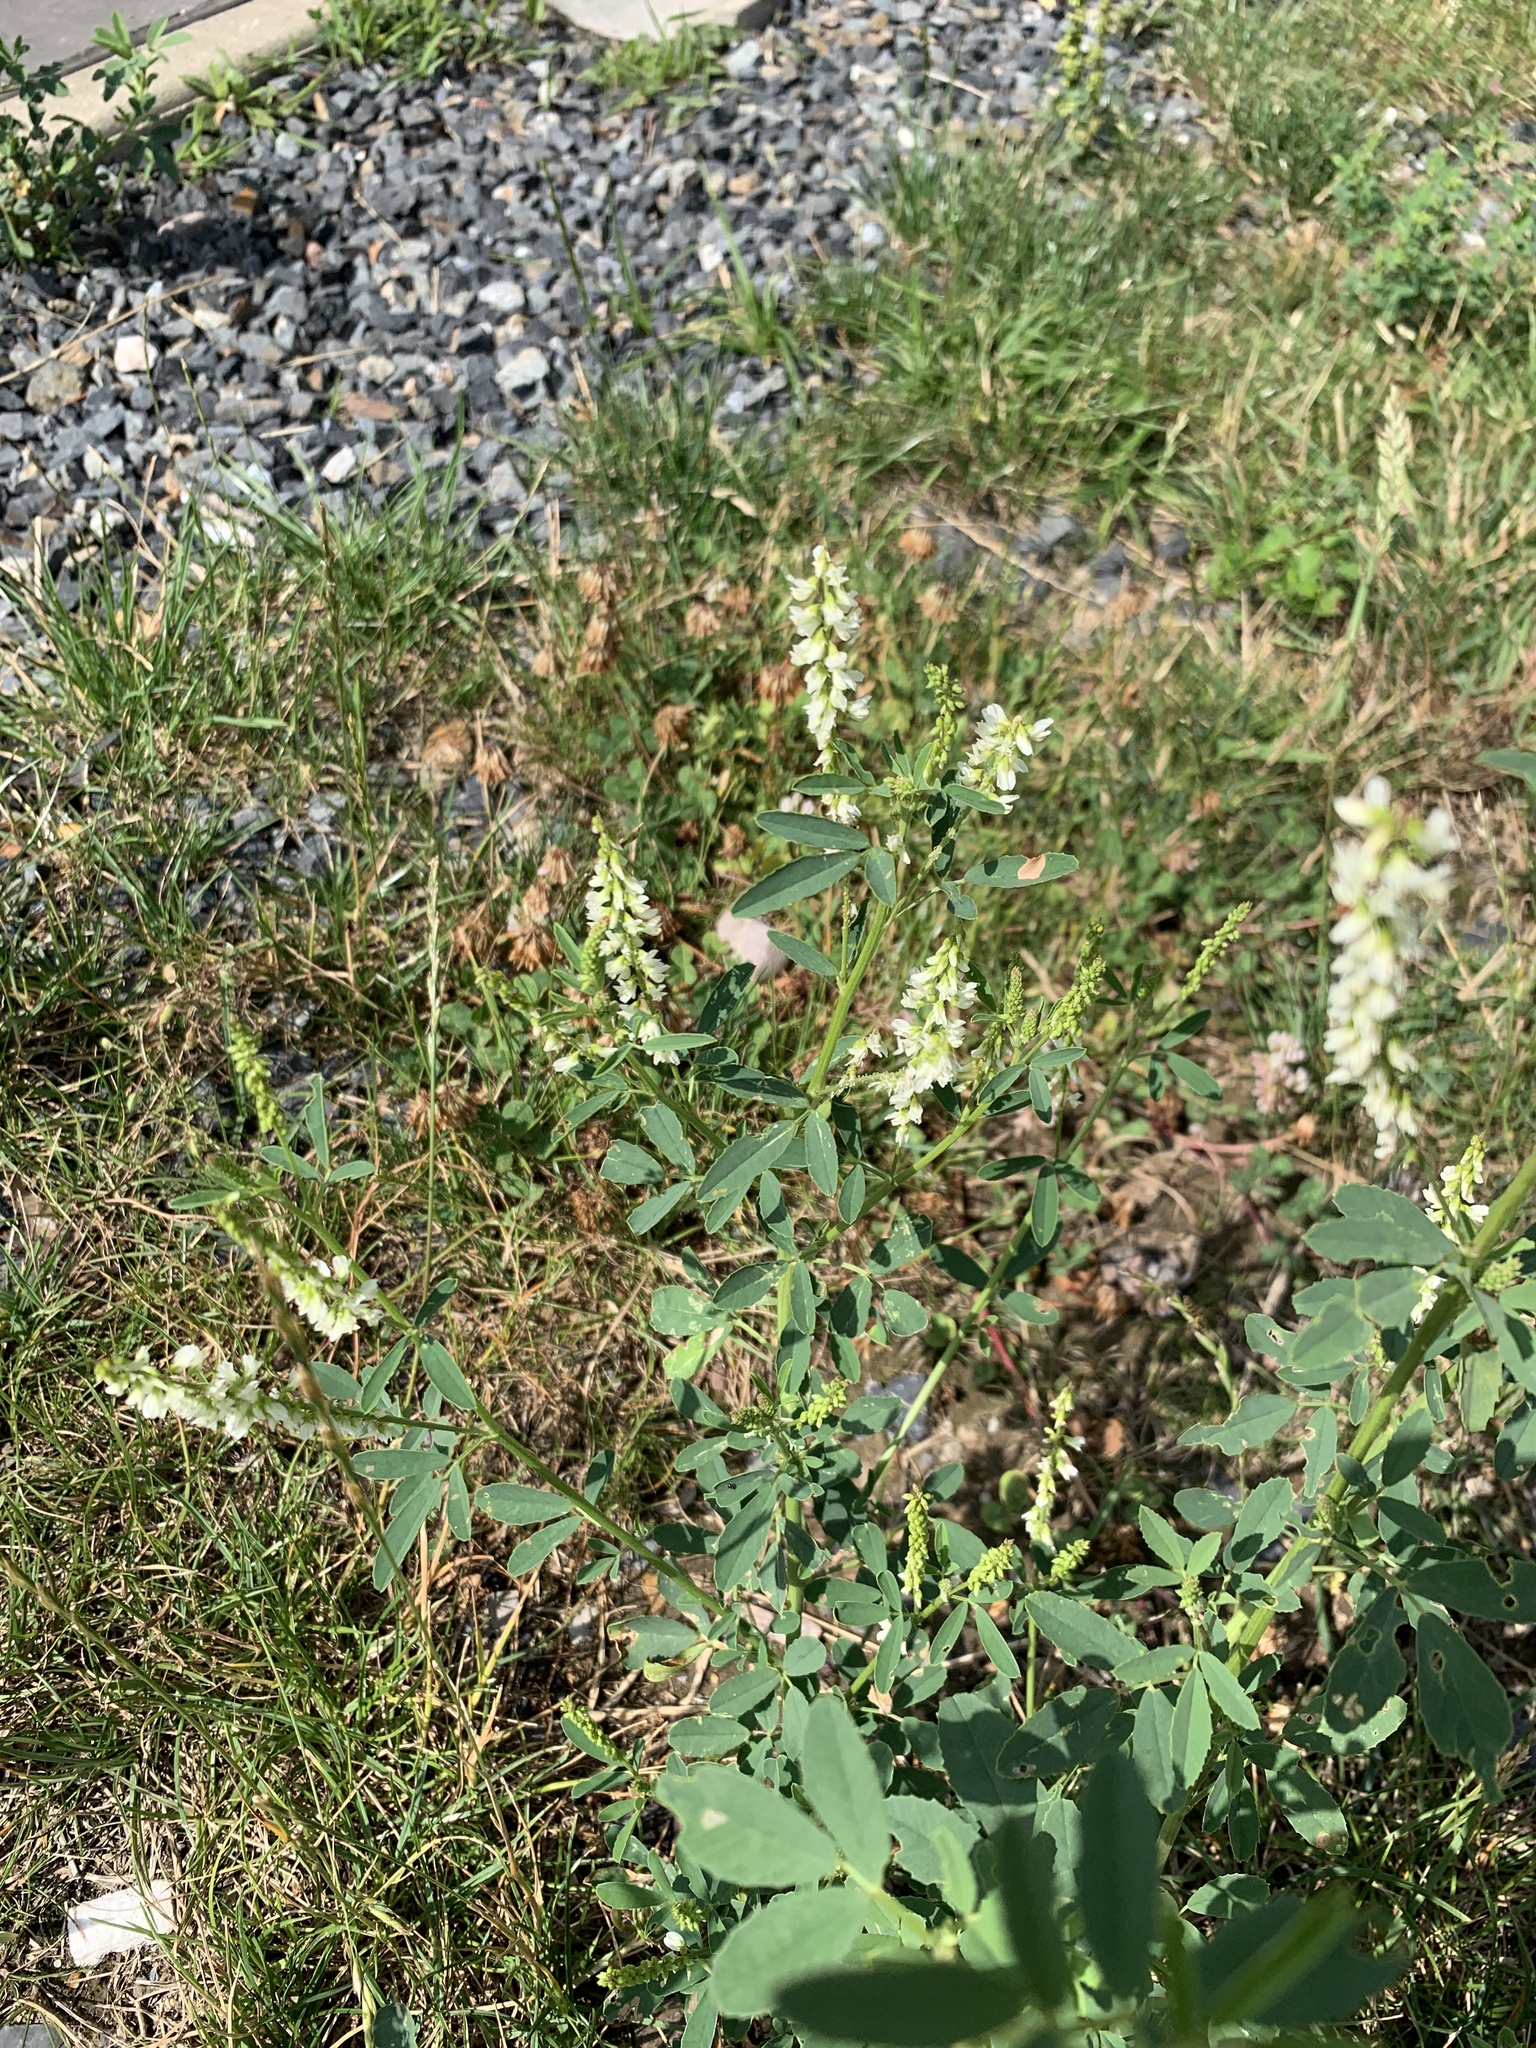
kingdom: Plantae
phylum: Tracheophyta
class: Magnoliopsida
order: Fabales
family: Fabaceae
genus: Melilotus
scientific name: Melilotus albus
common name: White melilot
